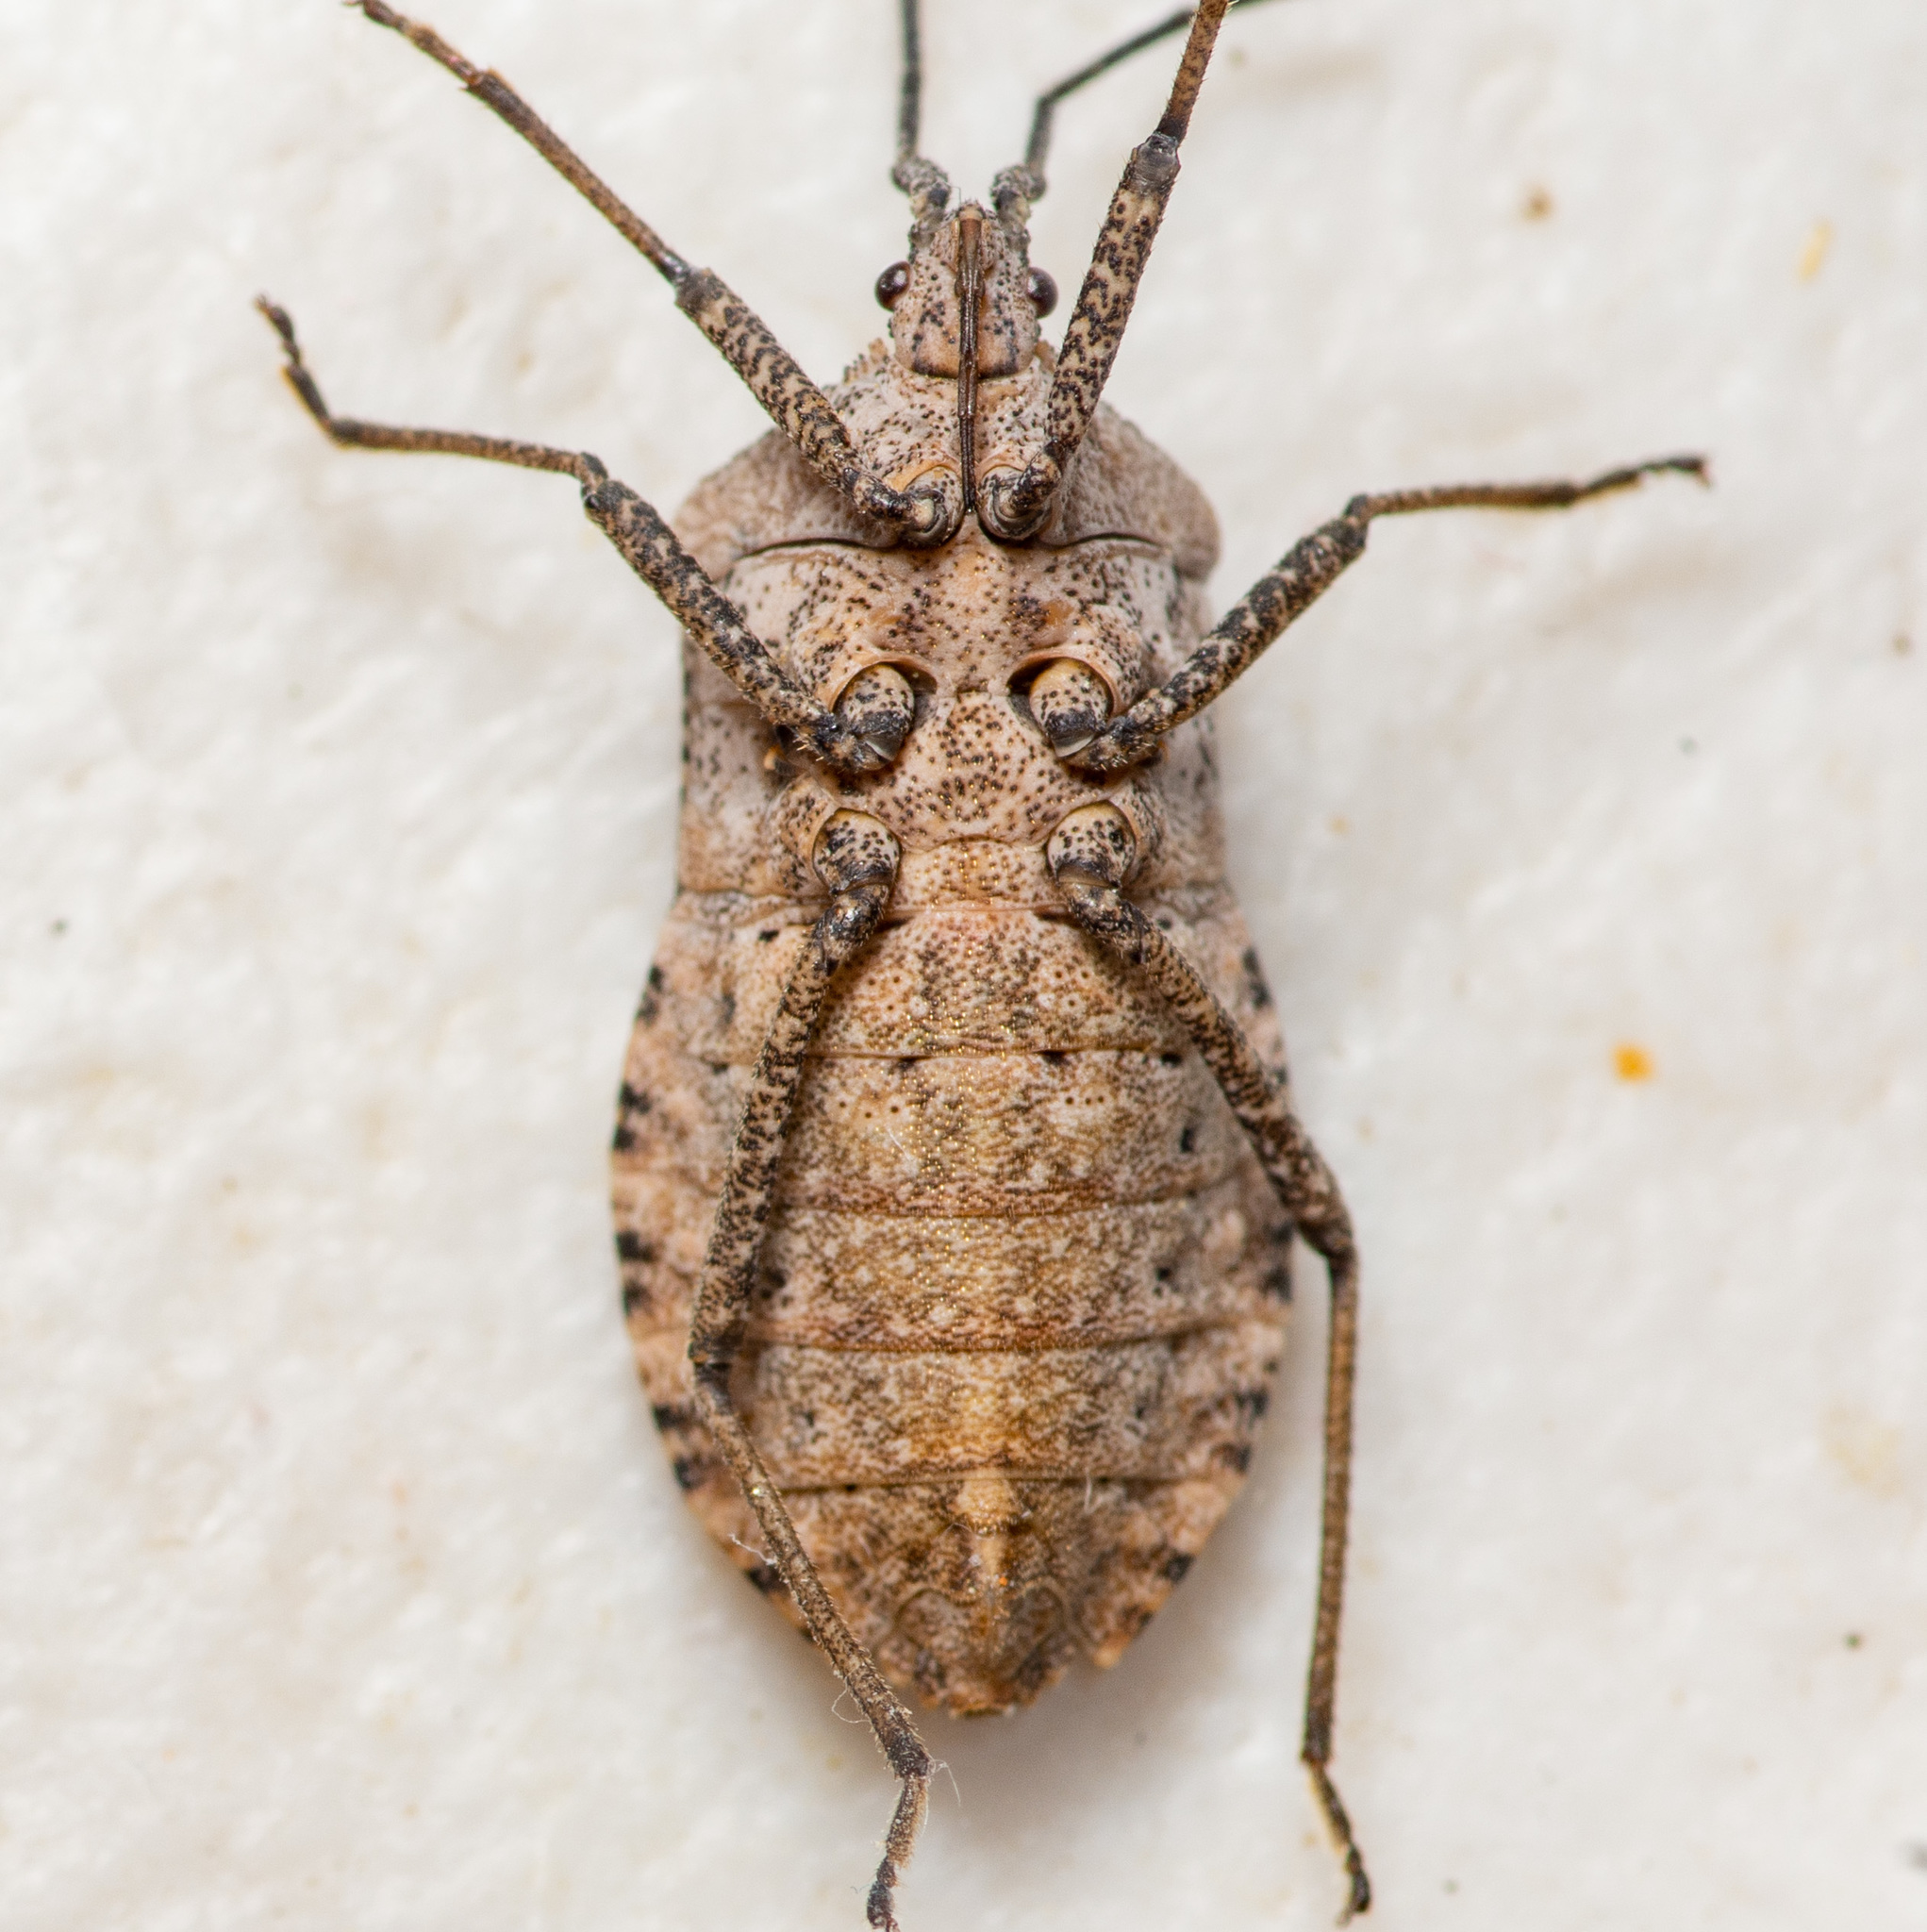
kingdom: Animalia
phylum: Arthropoda
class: Insecta
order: Hemiptera
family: Coreidae
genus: Cimolus
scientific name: Cimolus obscurus
